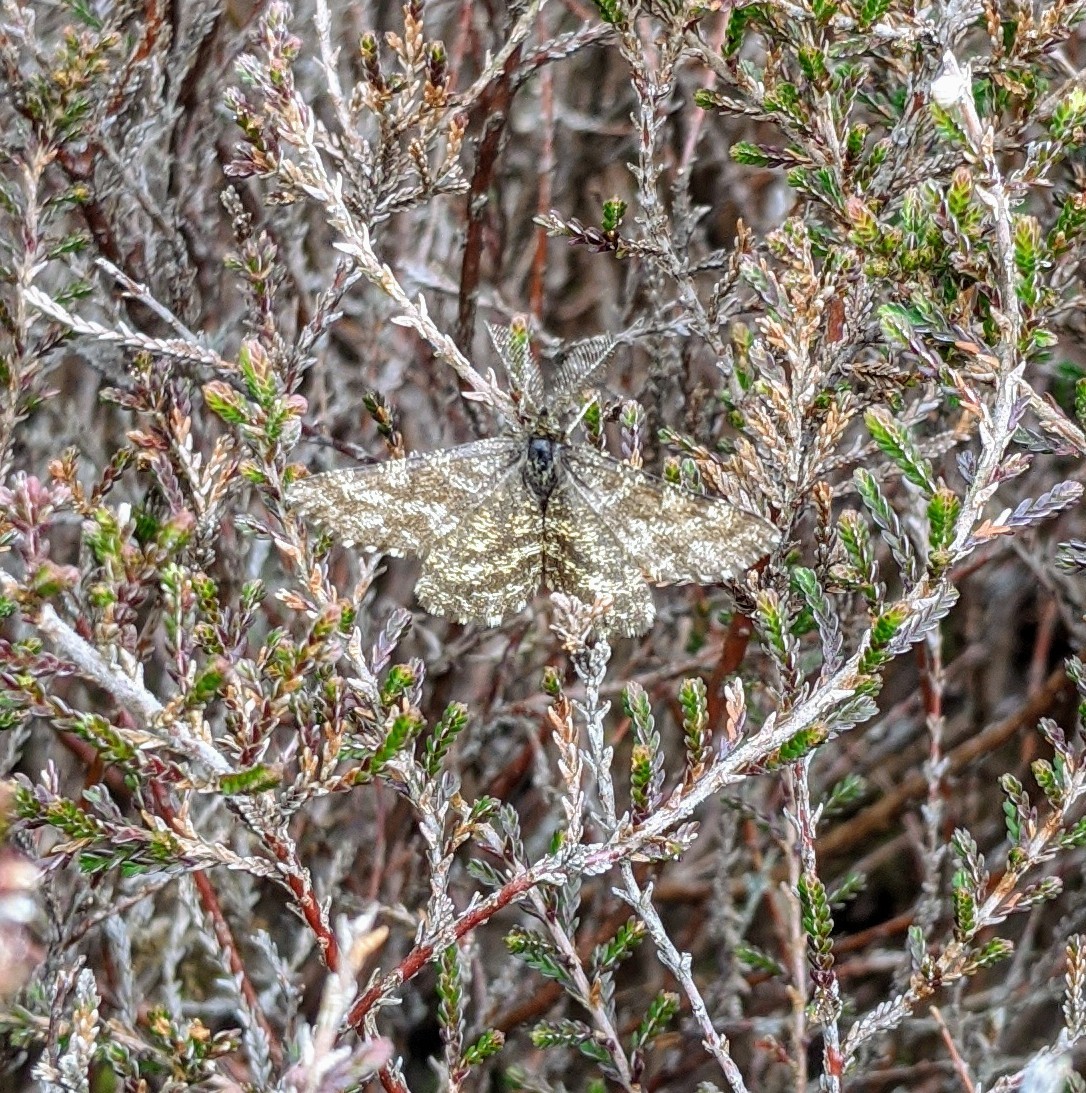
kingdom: Animalia
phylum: Arthropoda
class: Insecta
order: Lepidoptera
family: Geometridae
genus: Ematurga
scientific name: Ematurga atomaria
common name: Common heath
